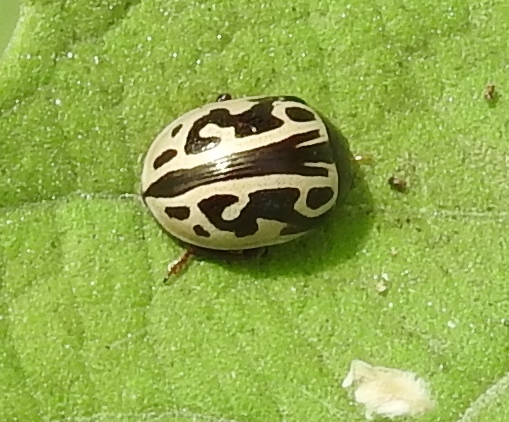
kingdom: Animalia
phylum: Arthropoda
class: Insecta
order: Coleoptera
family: Chrysomelidae
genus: Calligrapha
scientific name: Calligrapha
